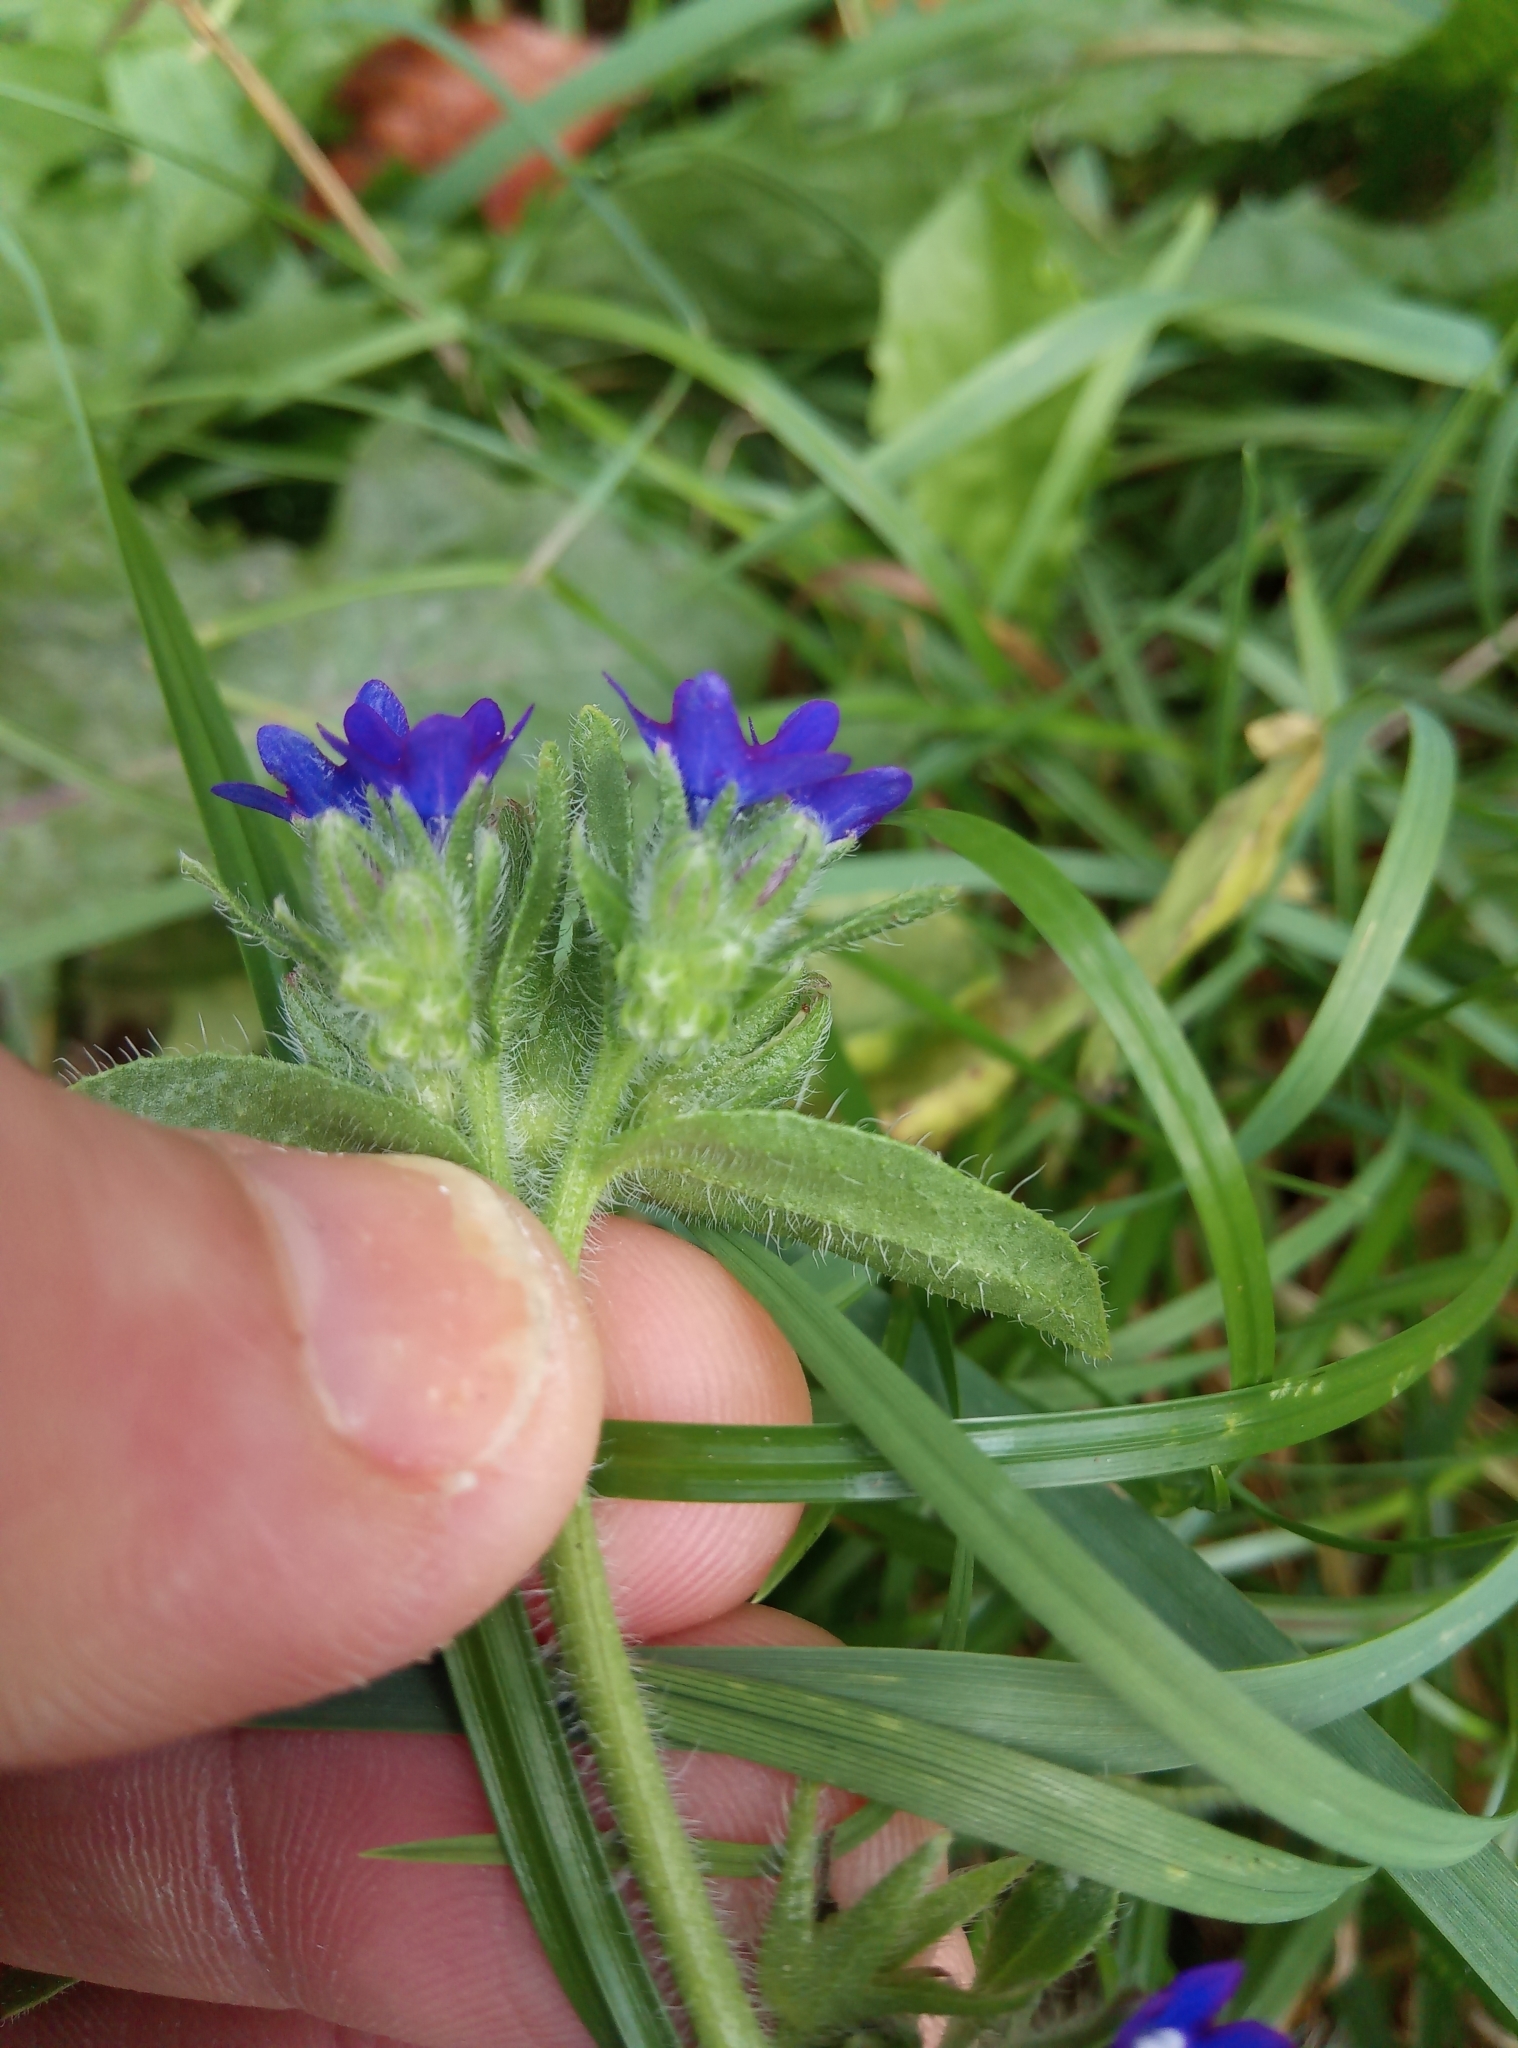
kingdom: Plantae
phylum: Tracheophyta
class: Magnoliopsida
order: Boraginales
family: Boraginaceae
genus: Anchusa
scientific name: Anchusa officinalis
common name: Alkanet
